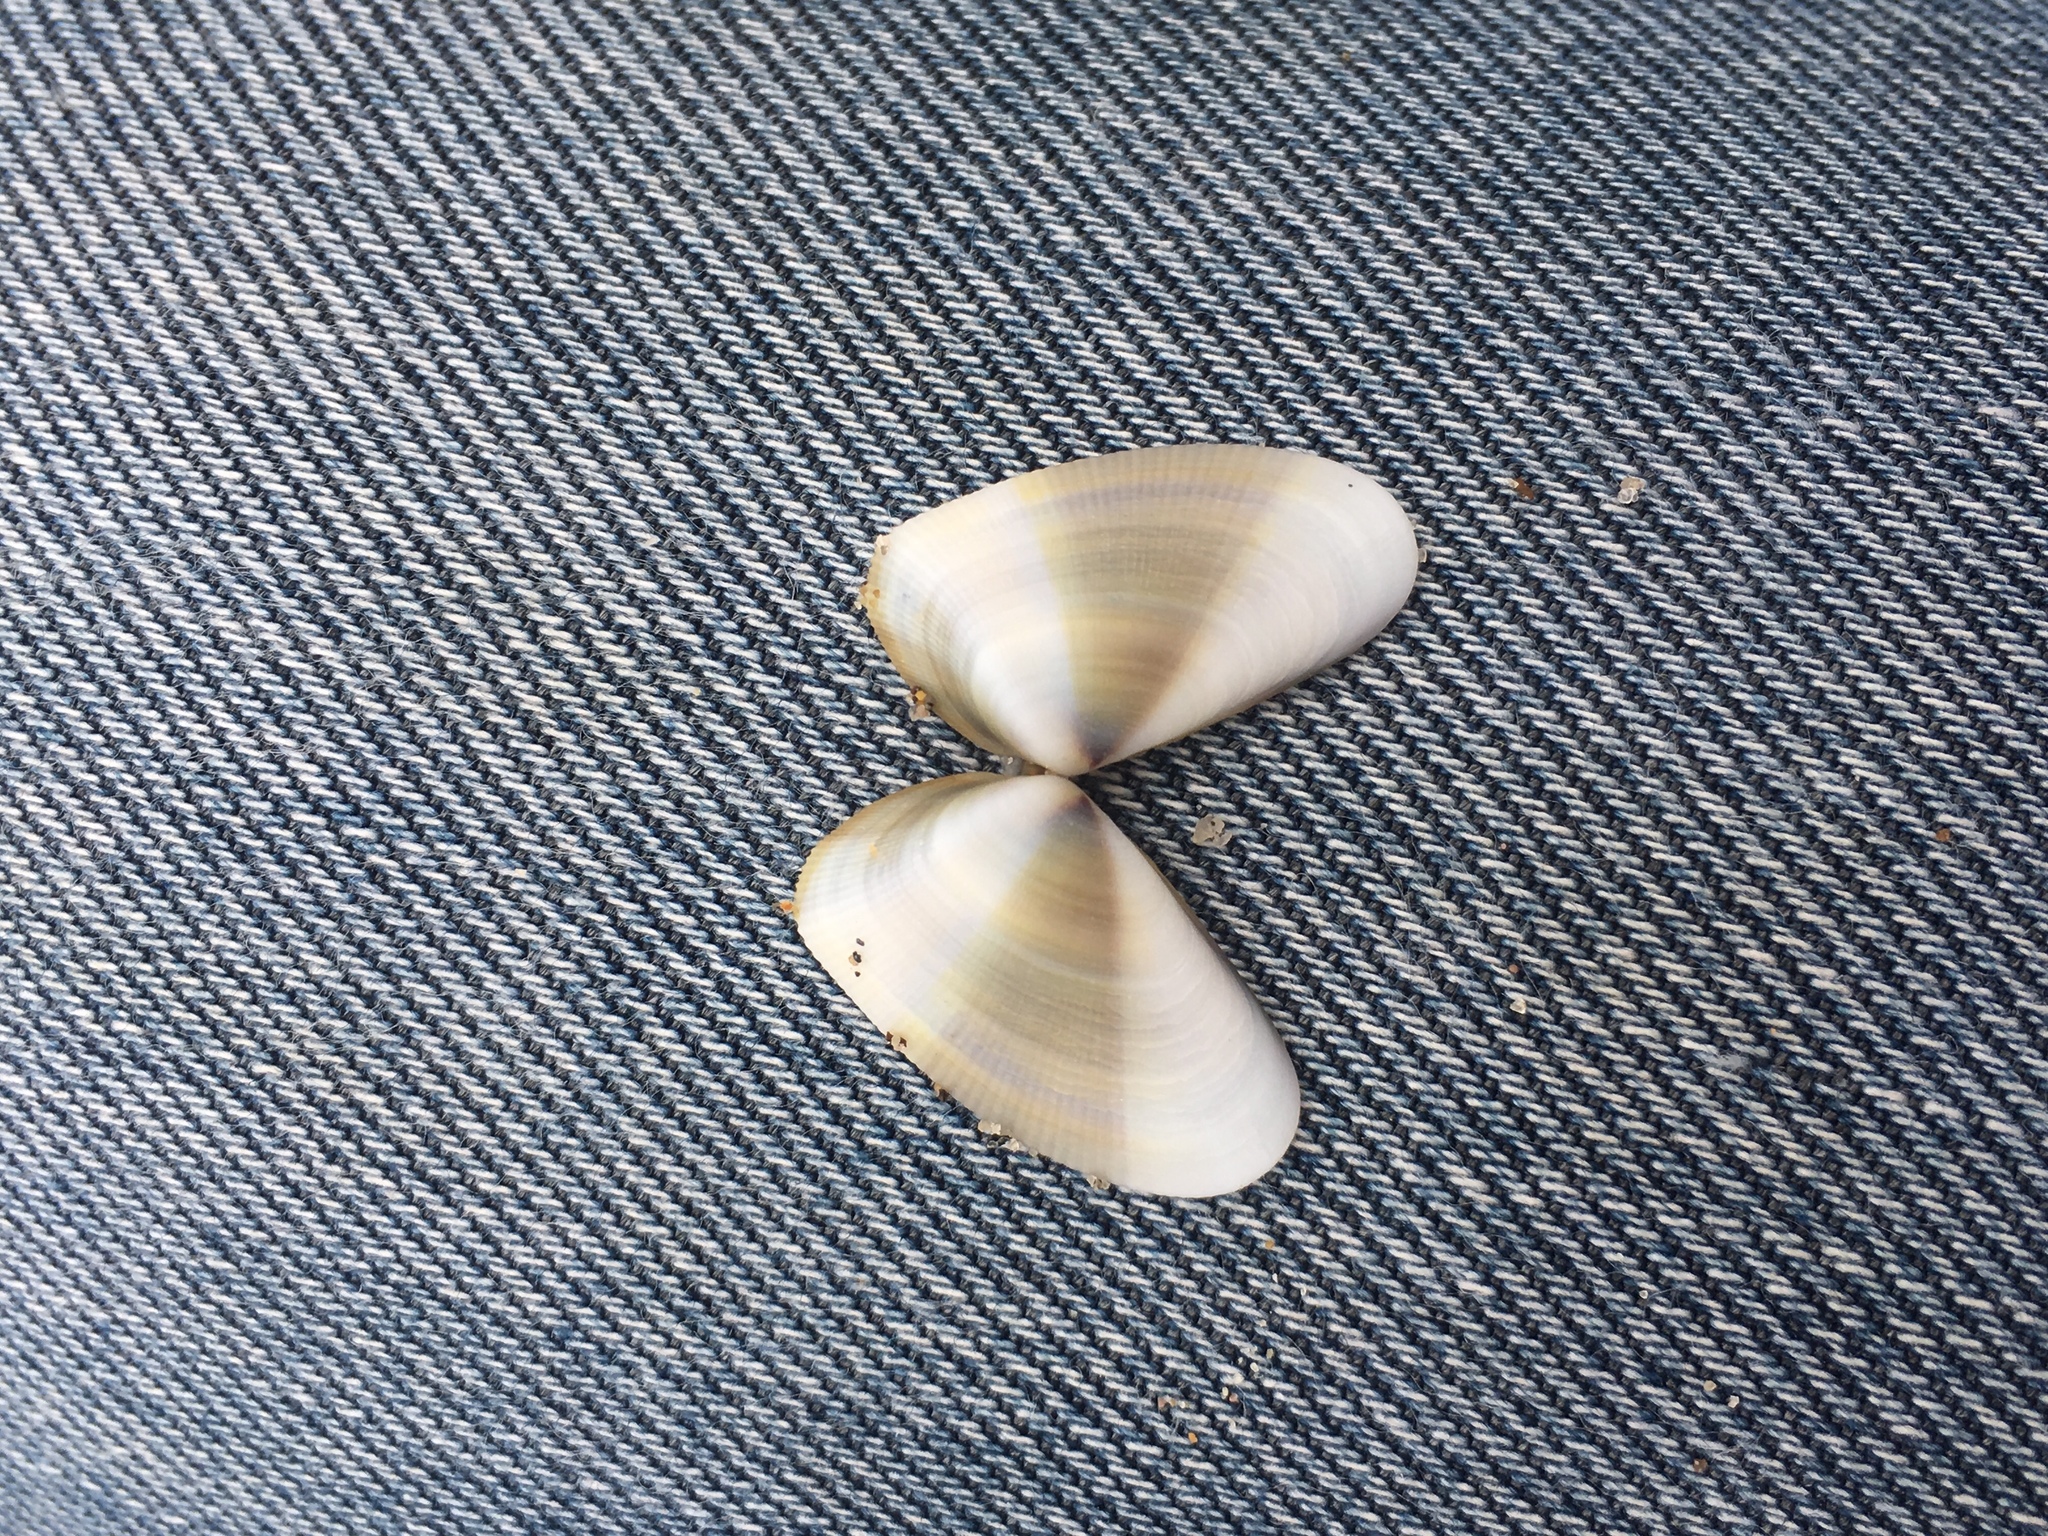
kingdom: Animalia
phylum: Mollusca
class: Bivalvia
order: Cardiida
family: Donacidae
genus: Donax
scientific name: Donax gouldii
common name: Gould beanclam
